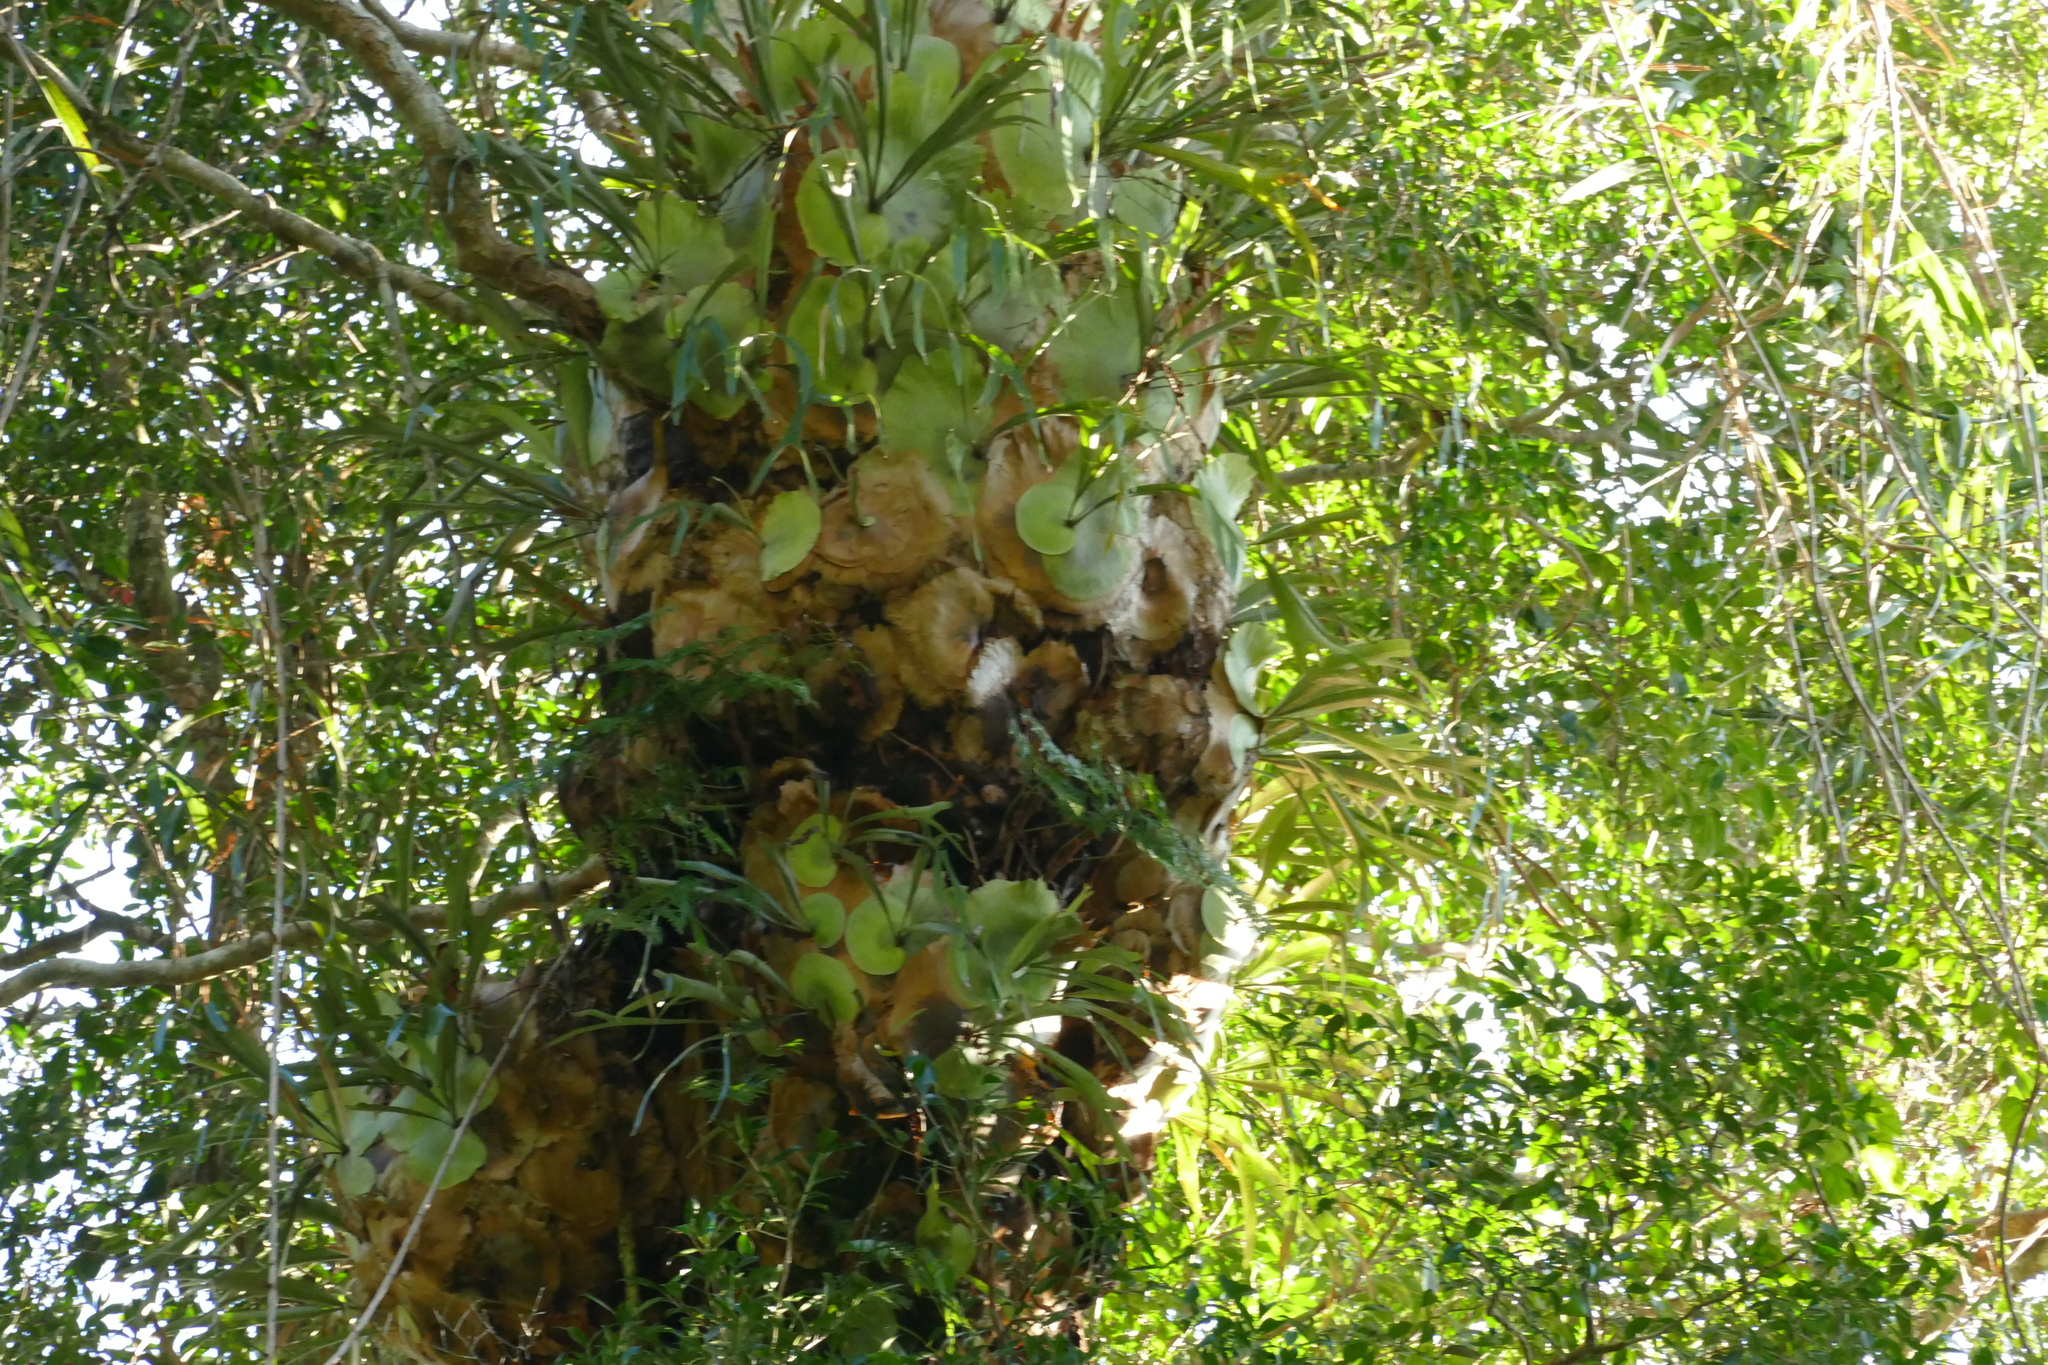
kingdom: Plantae
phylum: Tracheophyta
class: Polypodiopsida
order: Polypodiales
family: Polypodiaceae
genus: Platycerium
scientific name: Platycerium bifurcatum
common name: Elkhorn fern
